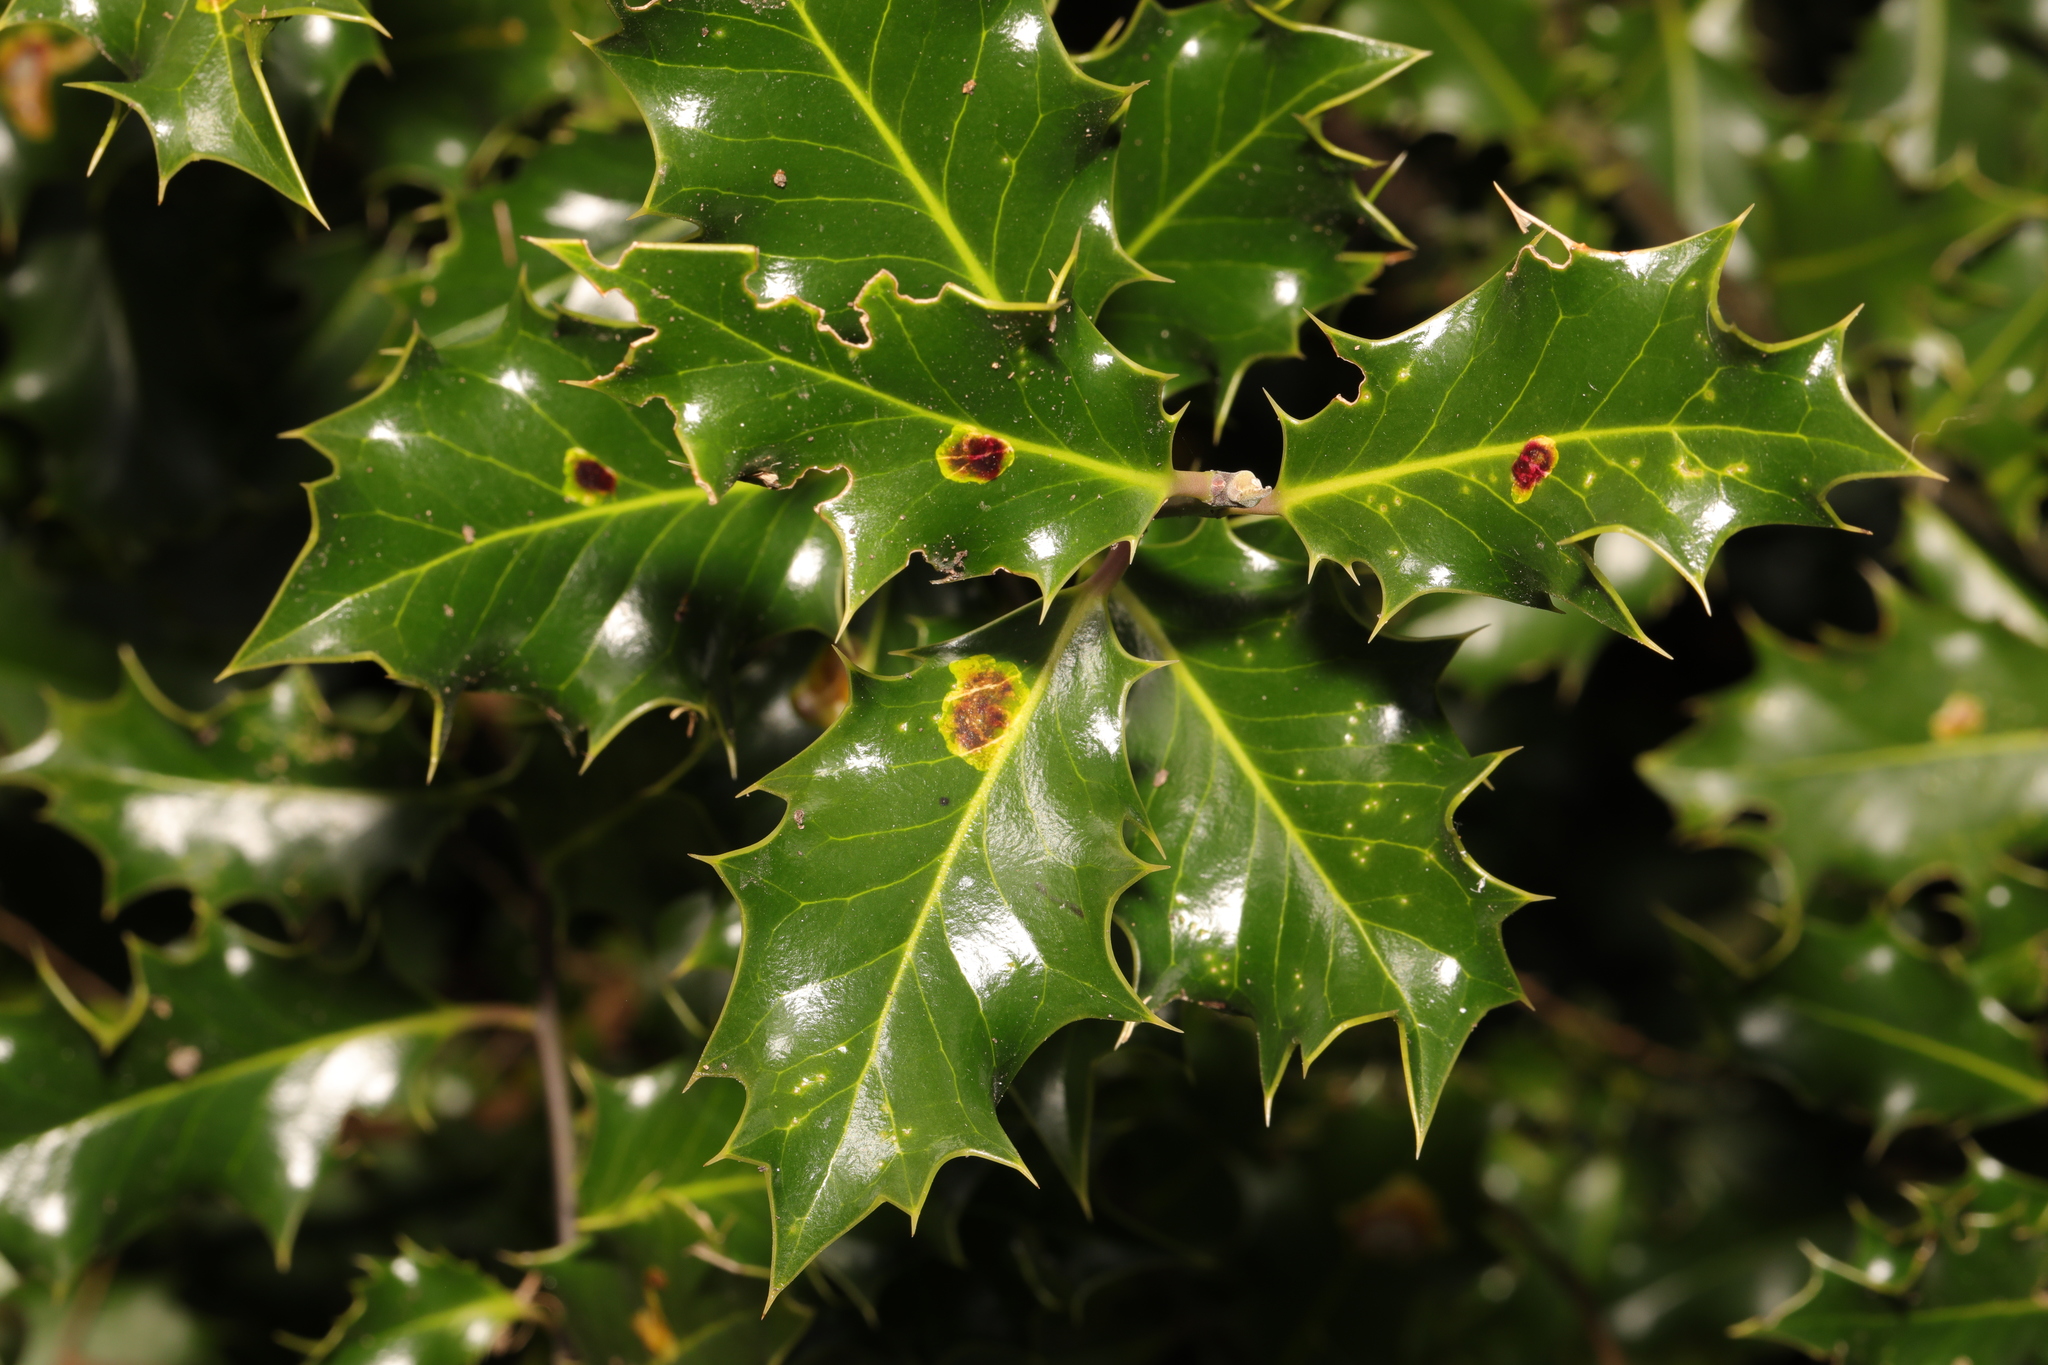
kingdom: Plantae
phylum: Tracheophyta
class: Magnoliopsida
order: Aquifoliales
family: Aquifoliaceae
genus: Ilex
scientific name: Ilex aquifolium
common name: English holly
